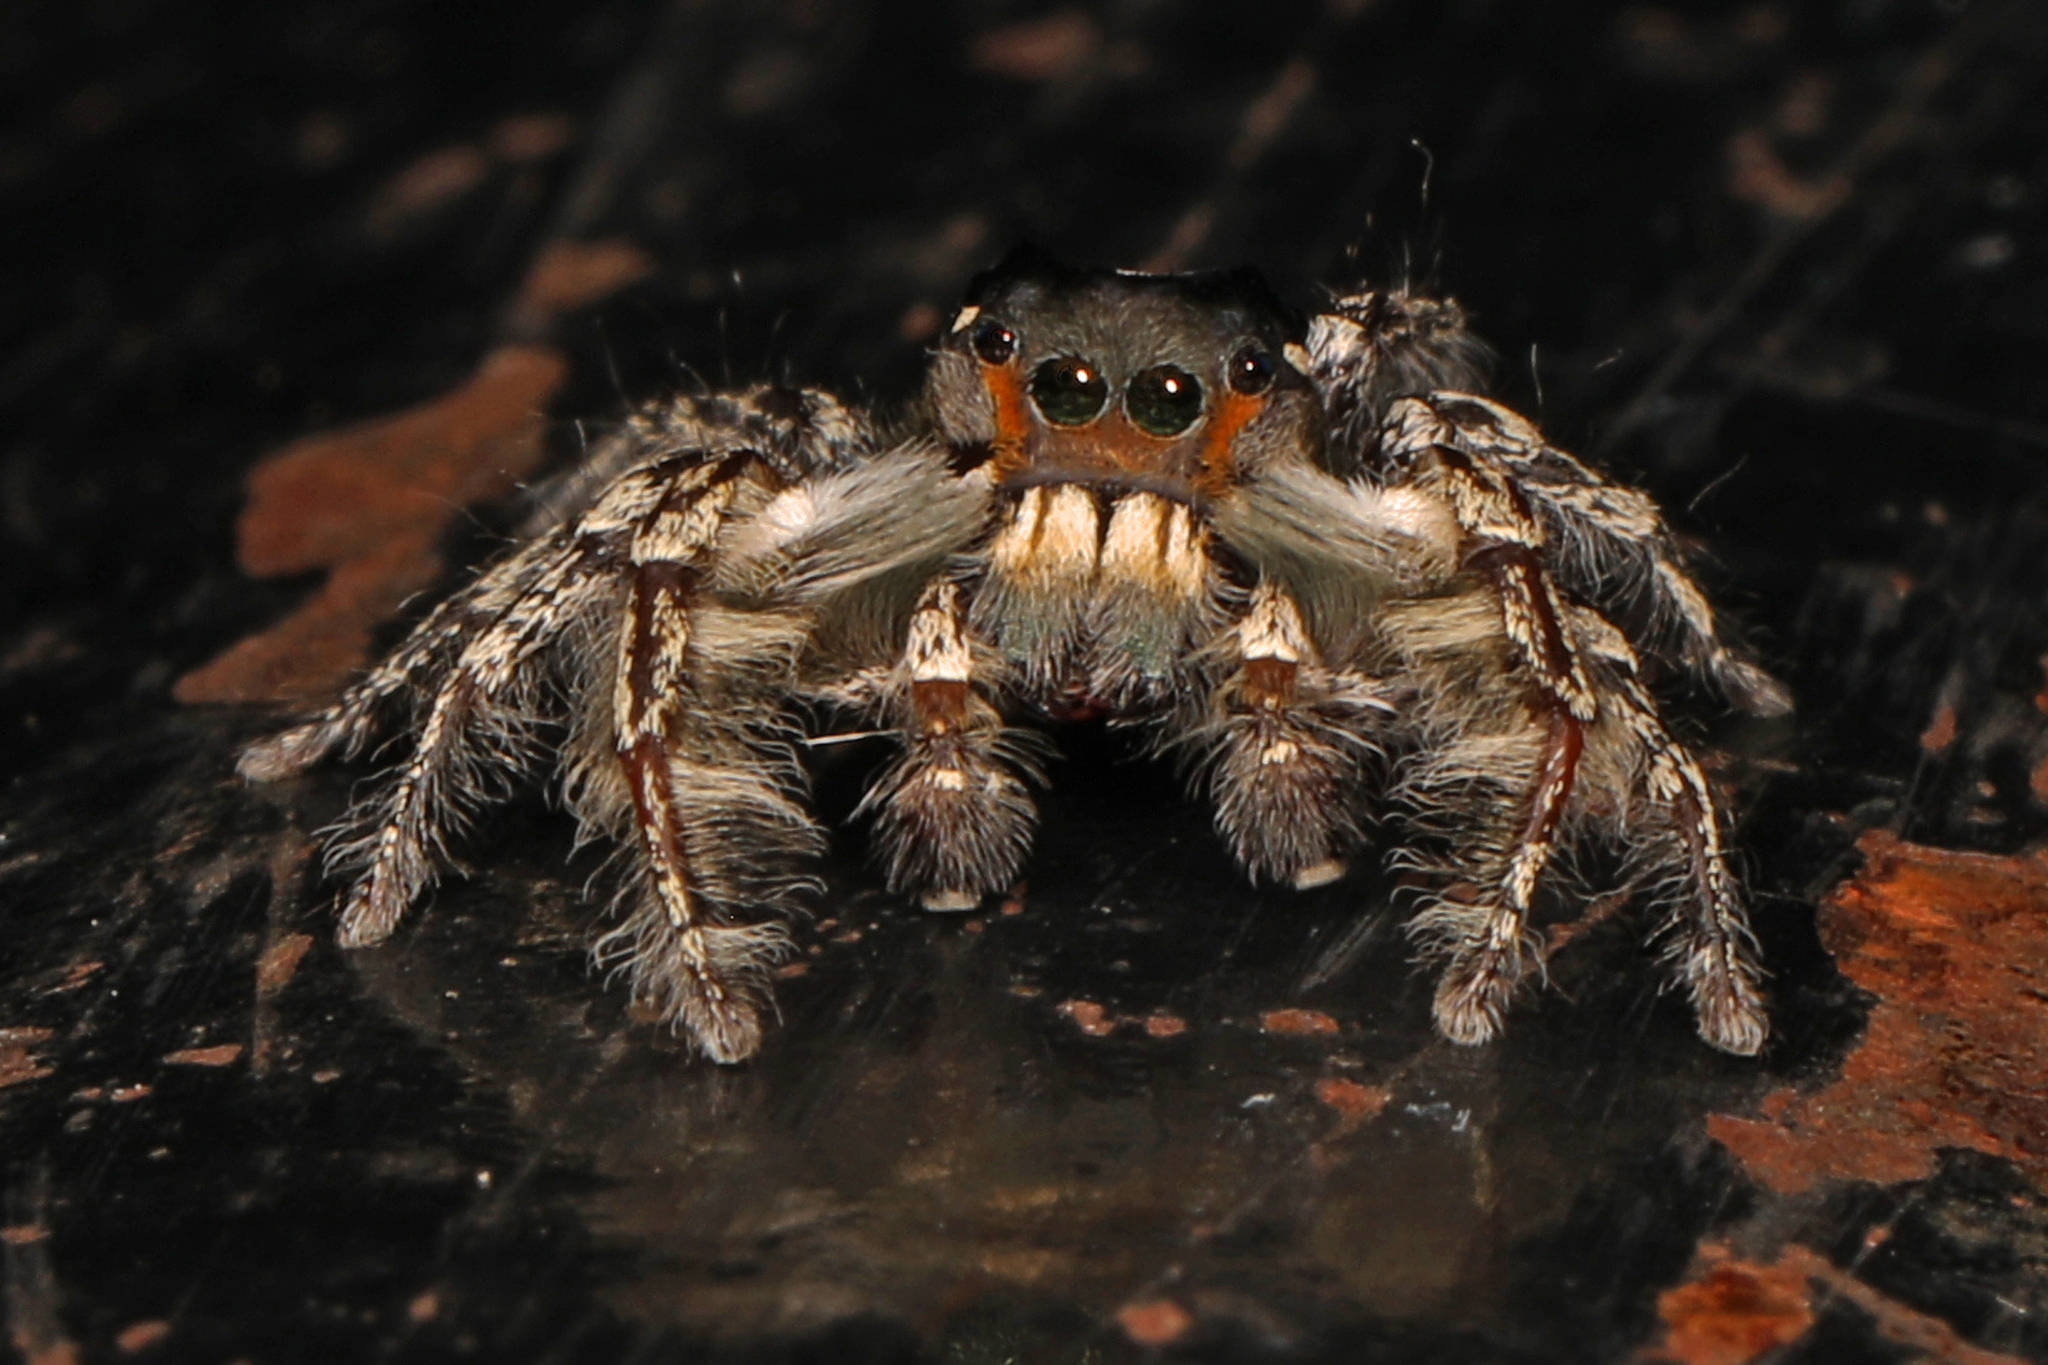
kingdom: Animalia
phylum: Arthropoda
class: Arachnida
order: Araneae
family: Salticidae
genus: Phidippus
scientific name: Phidippus putnami
